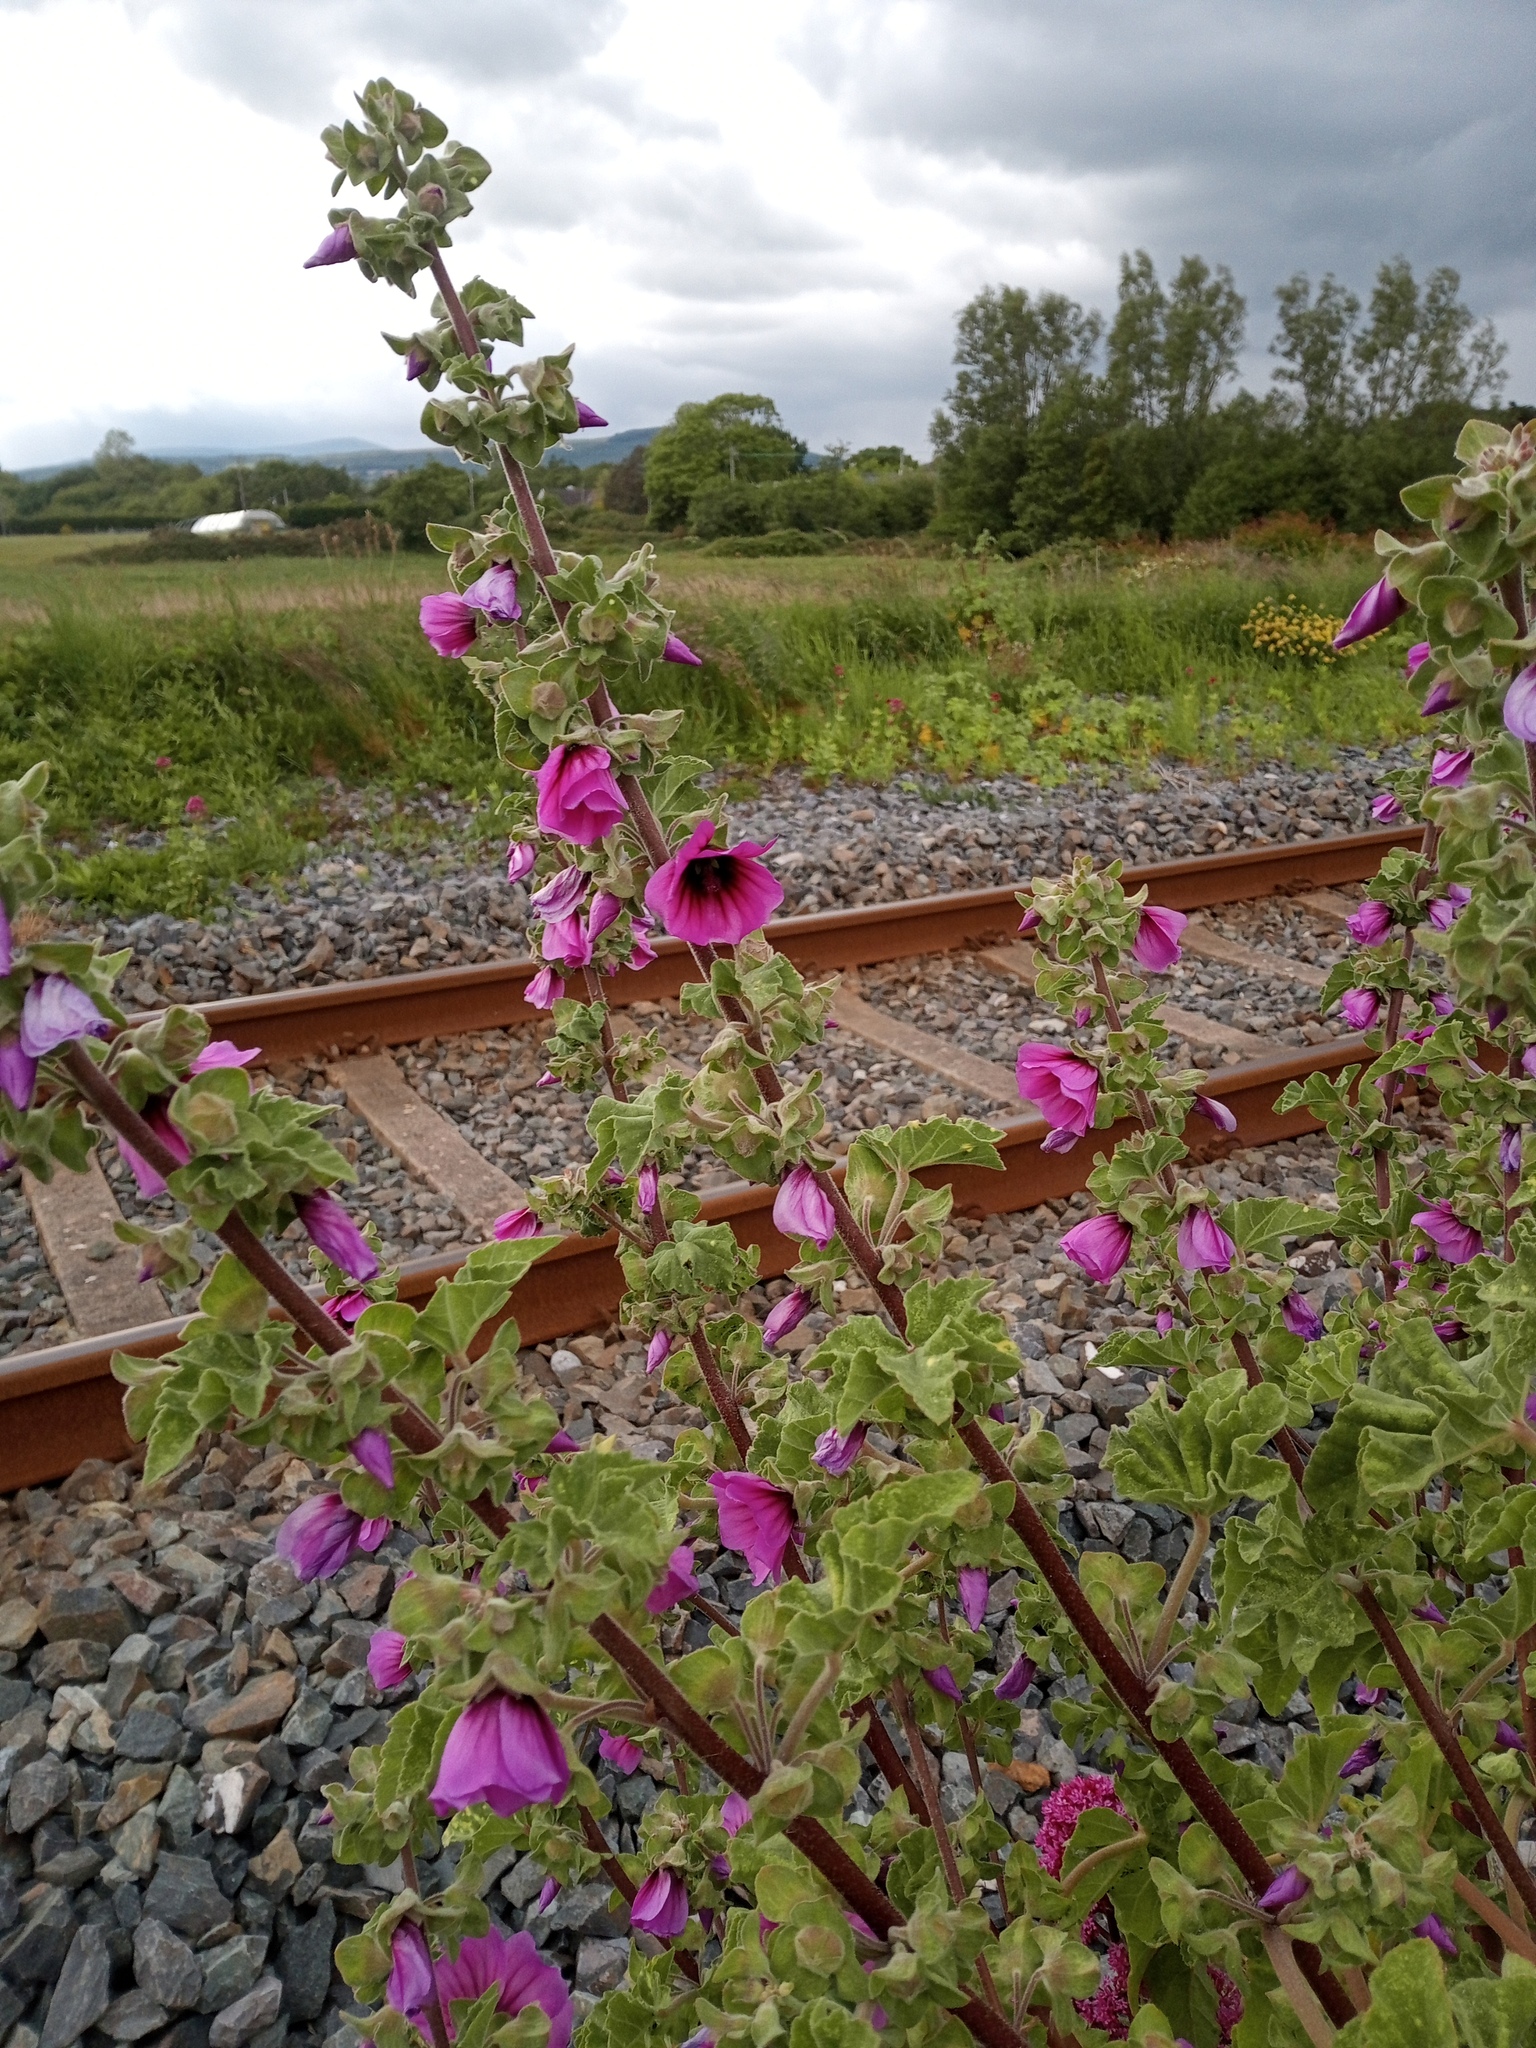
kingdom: Plantae
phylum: Tracheophyta
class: Magnoliopsida
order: Malvales
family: Malvaceae
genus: Malva
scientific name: Malva arborea
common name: Tree mallow
